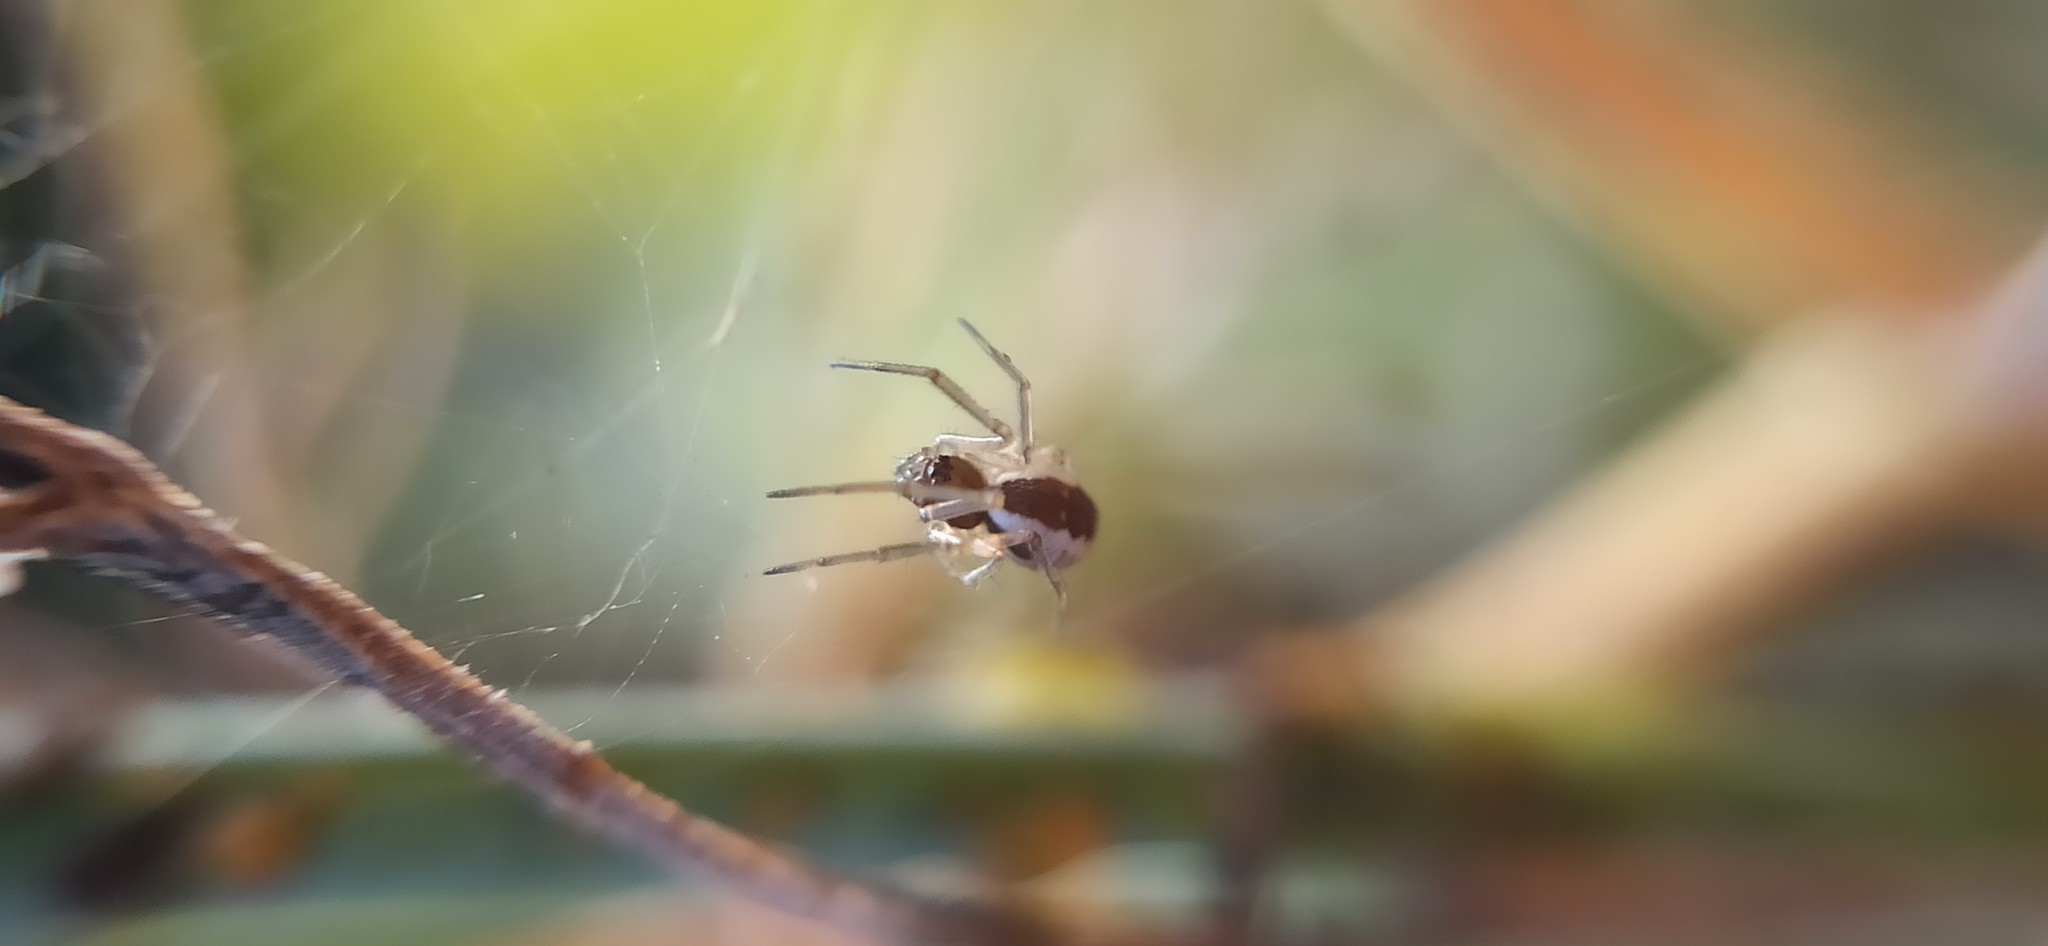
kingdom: Animalia
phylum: Arthropoda
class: Arachnida
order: Araneae
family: Linyphiidae
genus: Frontinellina
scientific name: Frontinellina frutetorum
